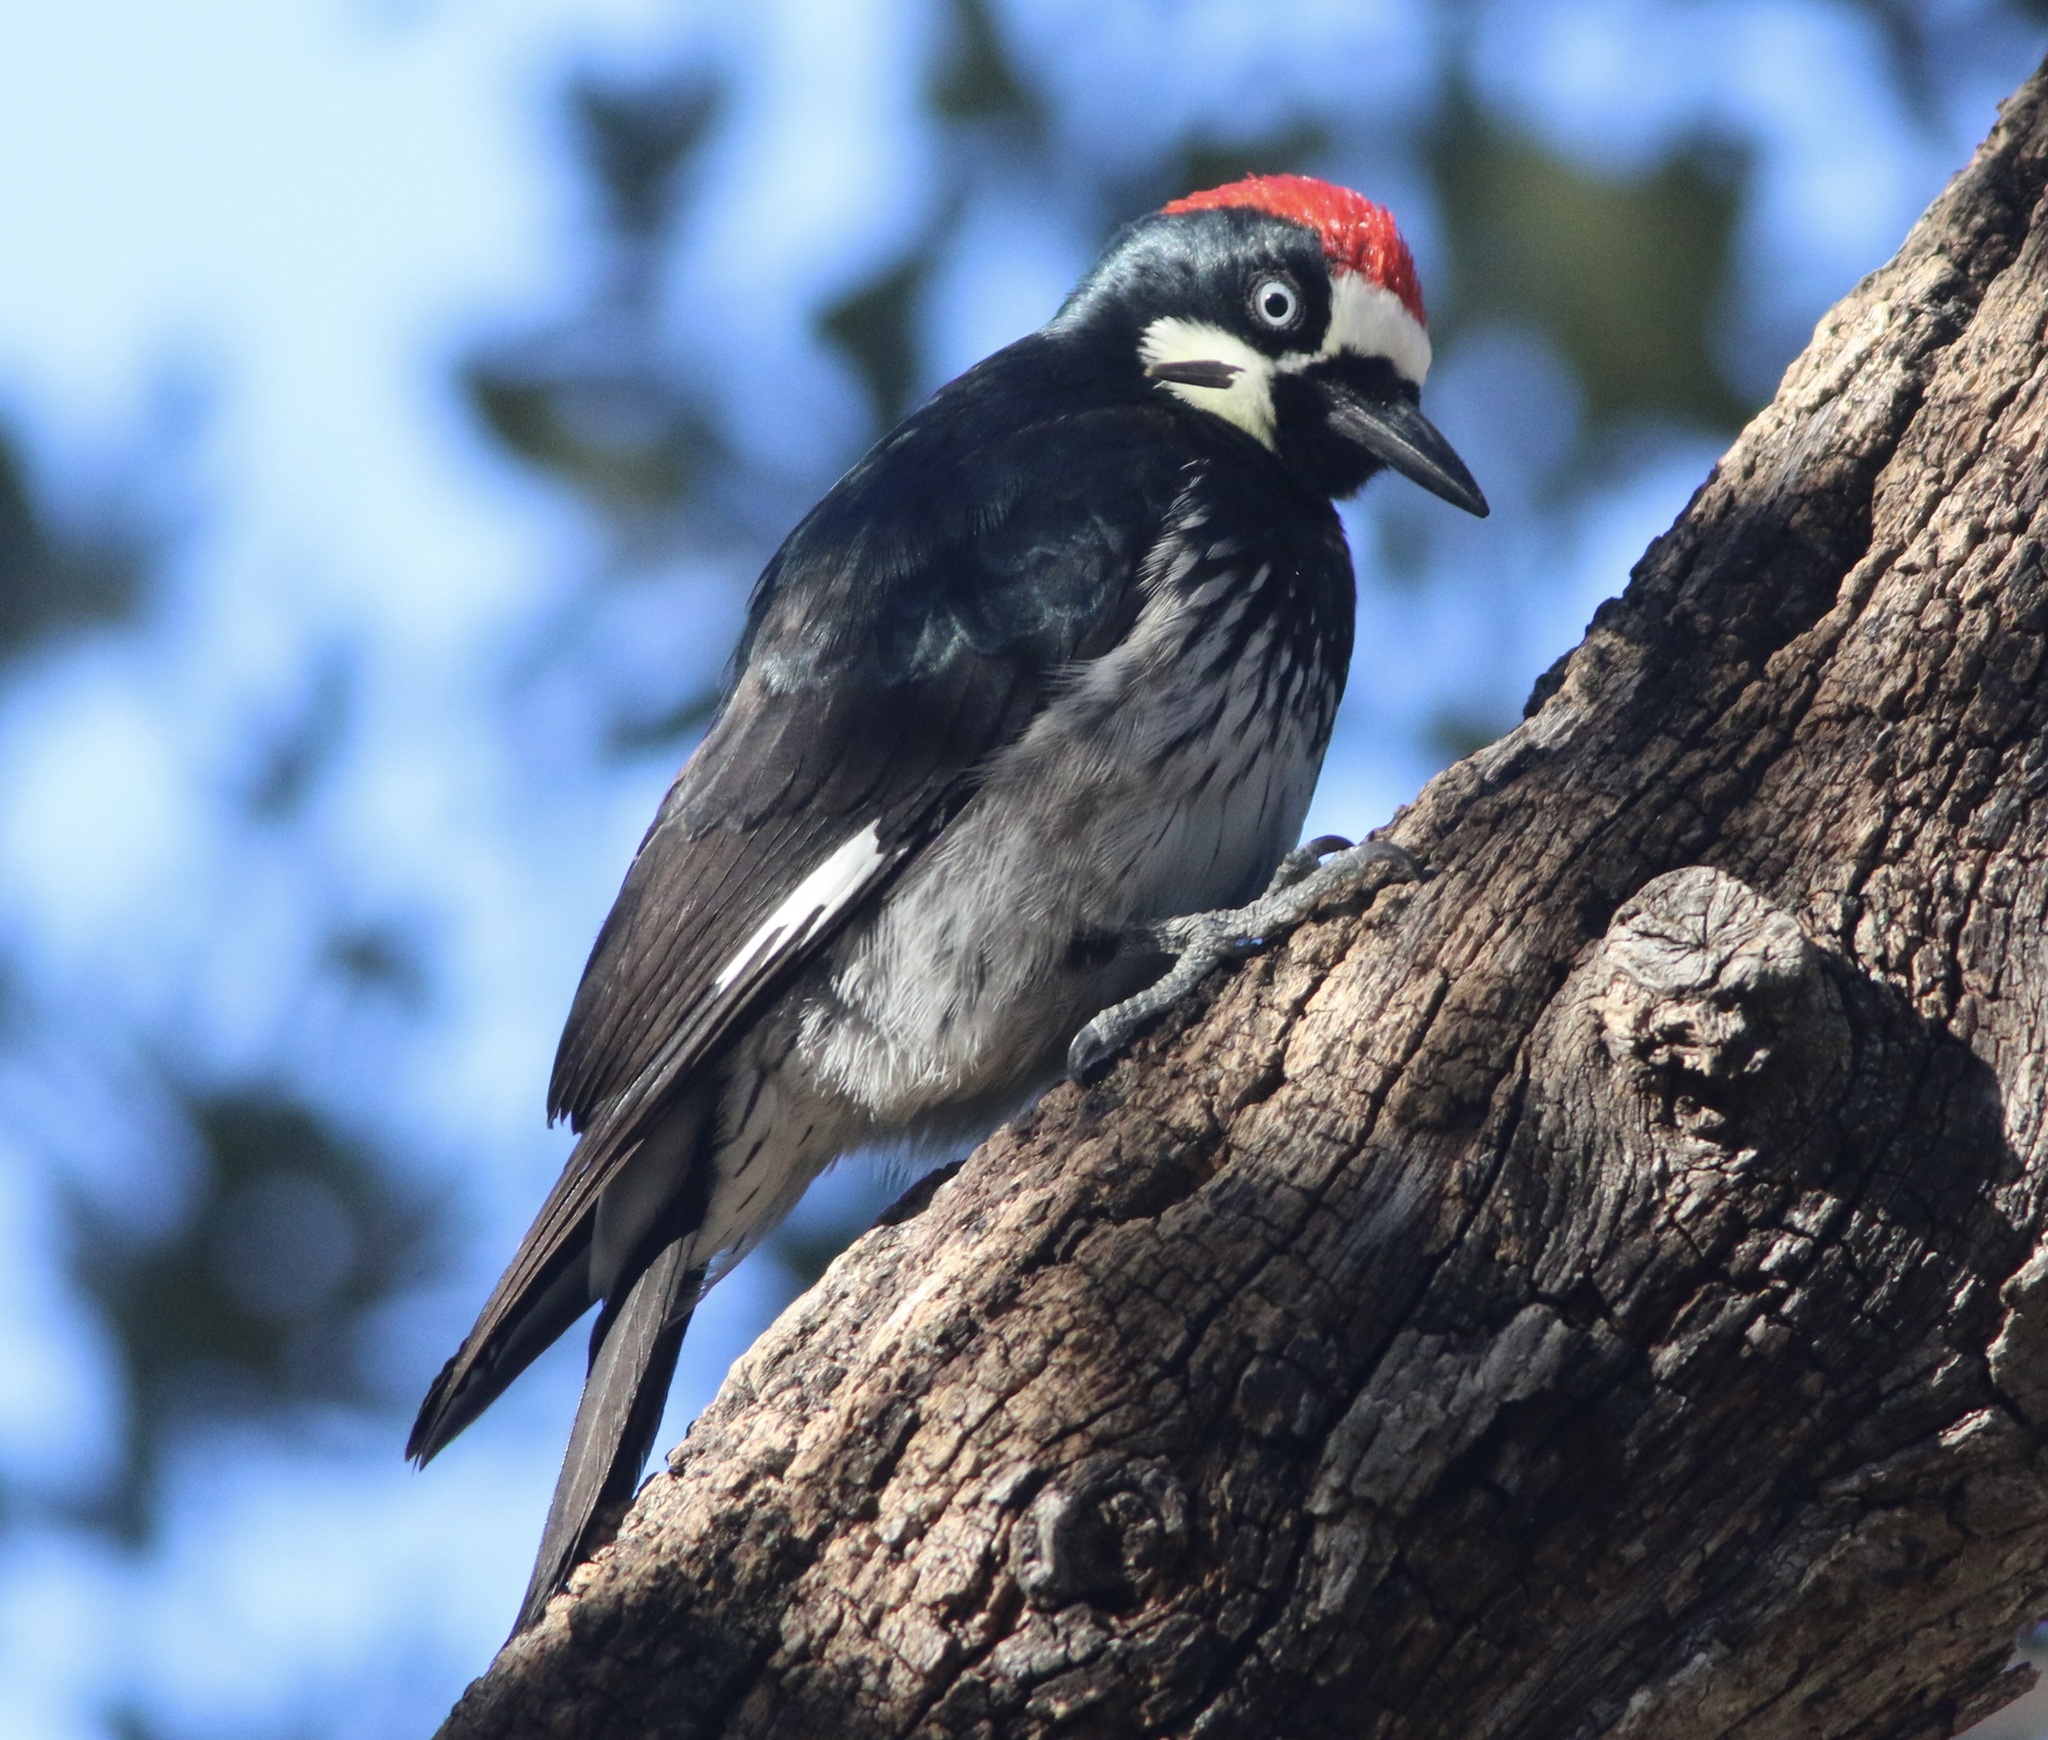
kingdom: Animalia
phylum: Chordata
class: Aves
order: Piciformes
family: Picidae
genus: Melanerpes
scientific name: Melanerpes formicivorus
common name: Acorn woodpecker
